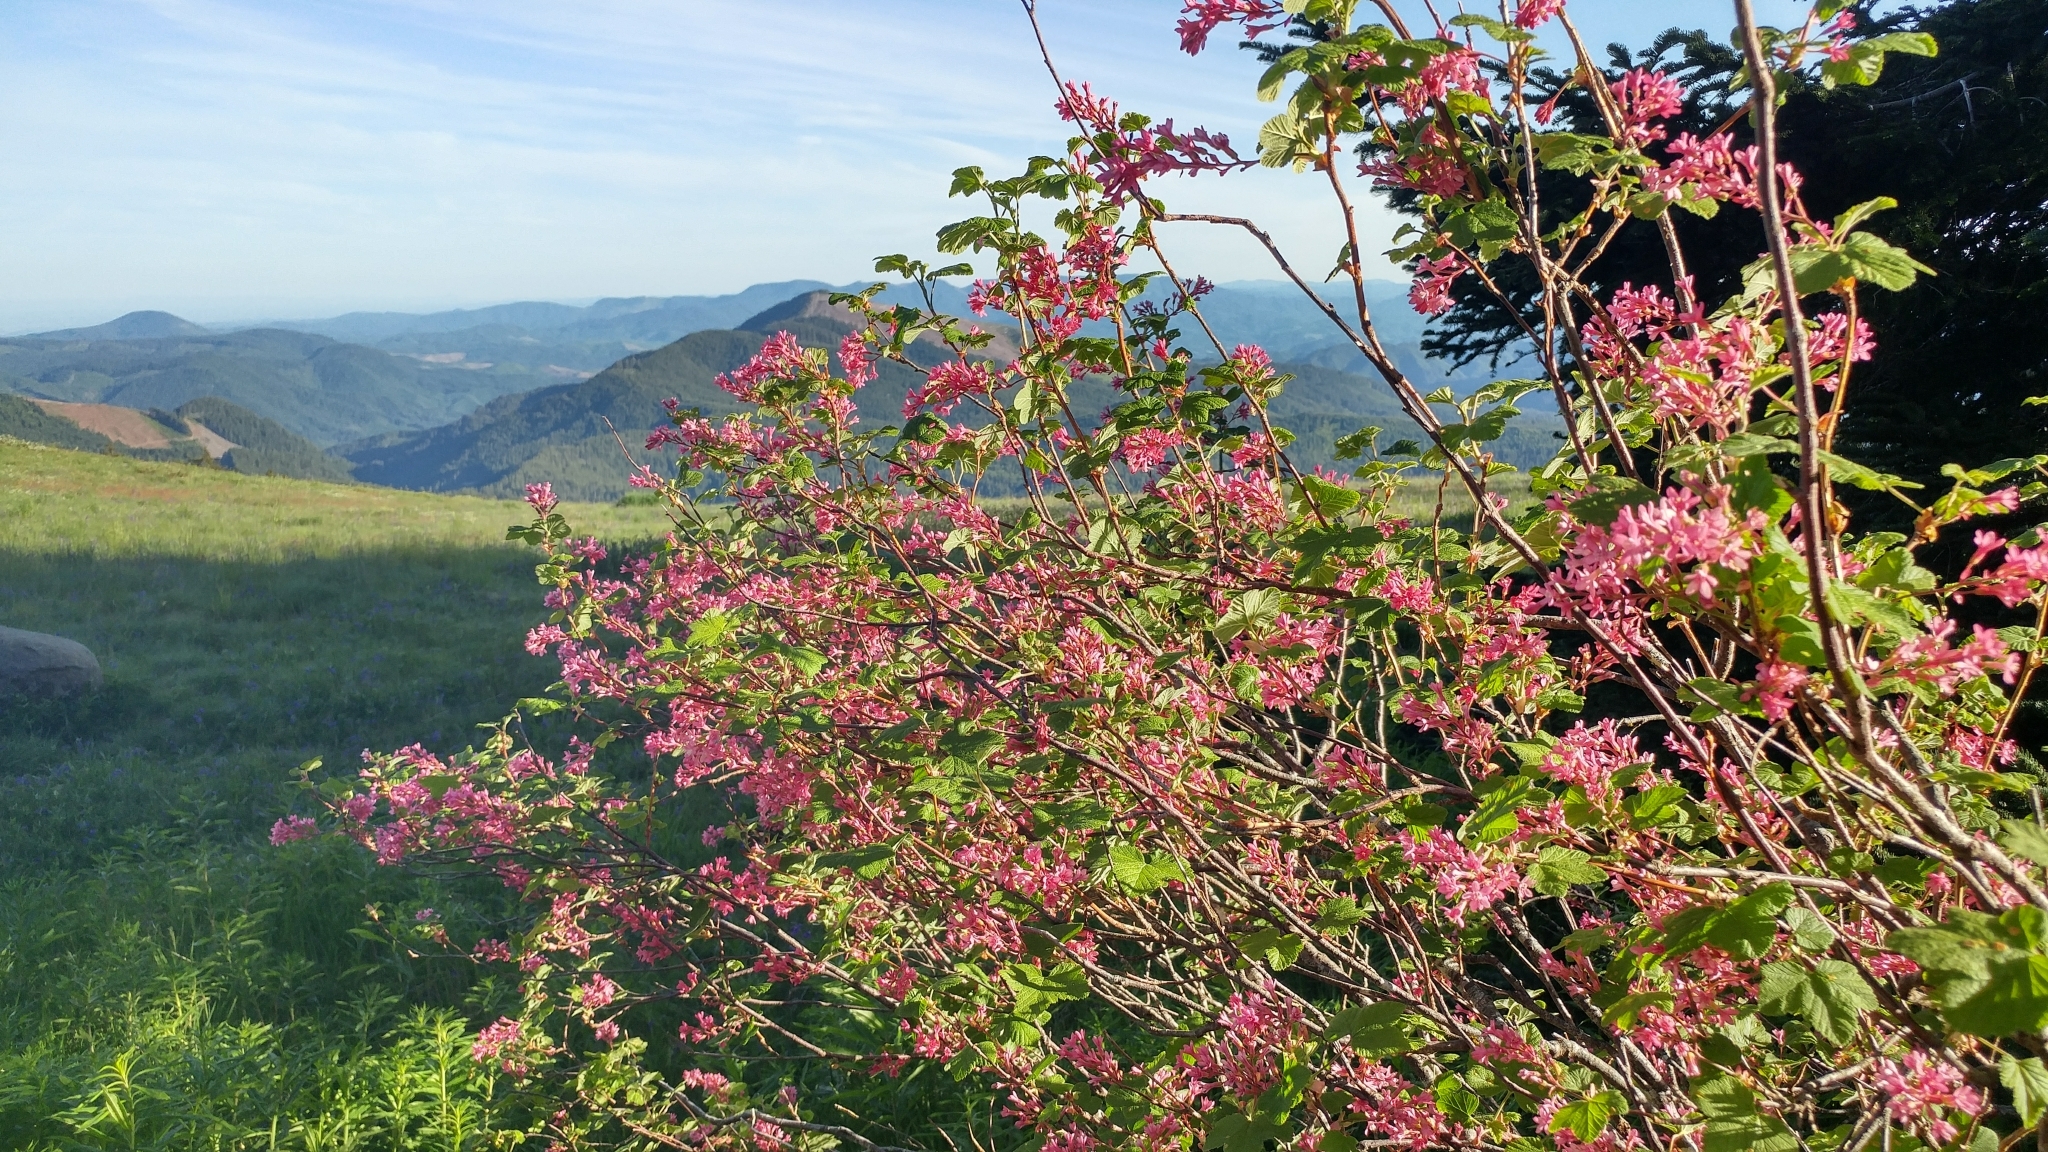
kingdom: Plantae
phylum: Tracheophyta
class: Magnoliopsida
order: Saxifragales
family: Grossulariaceae
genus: Ribes
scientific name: Ribes sanguineum
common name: Flowering currant
